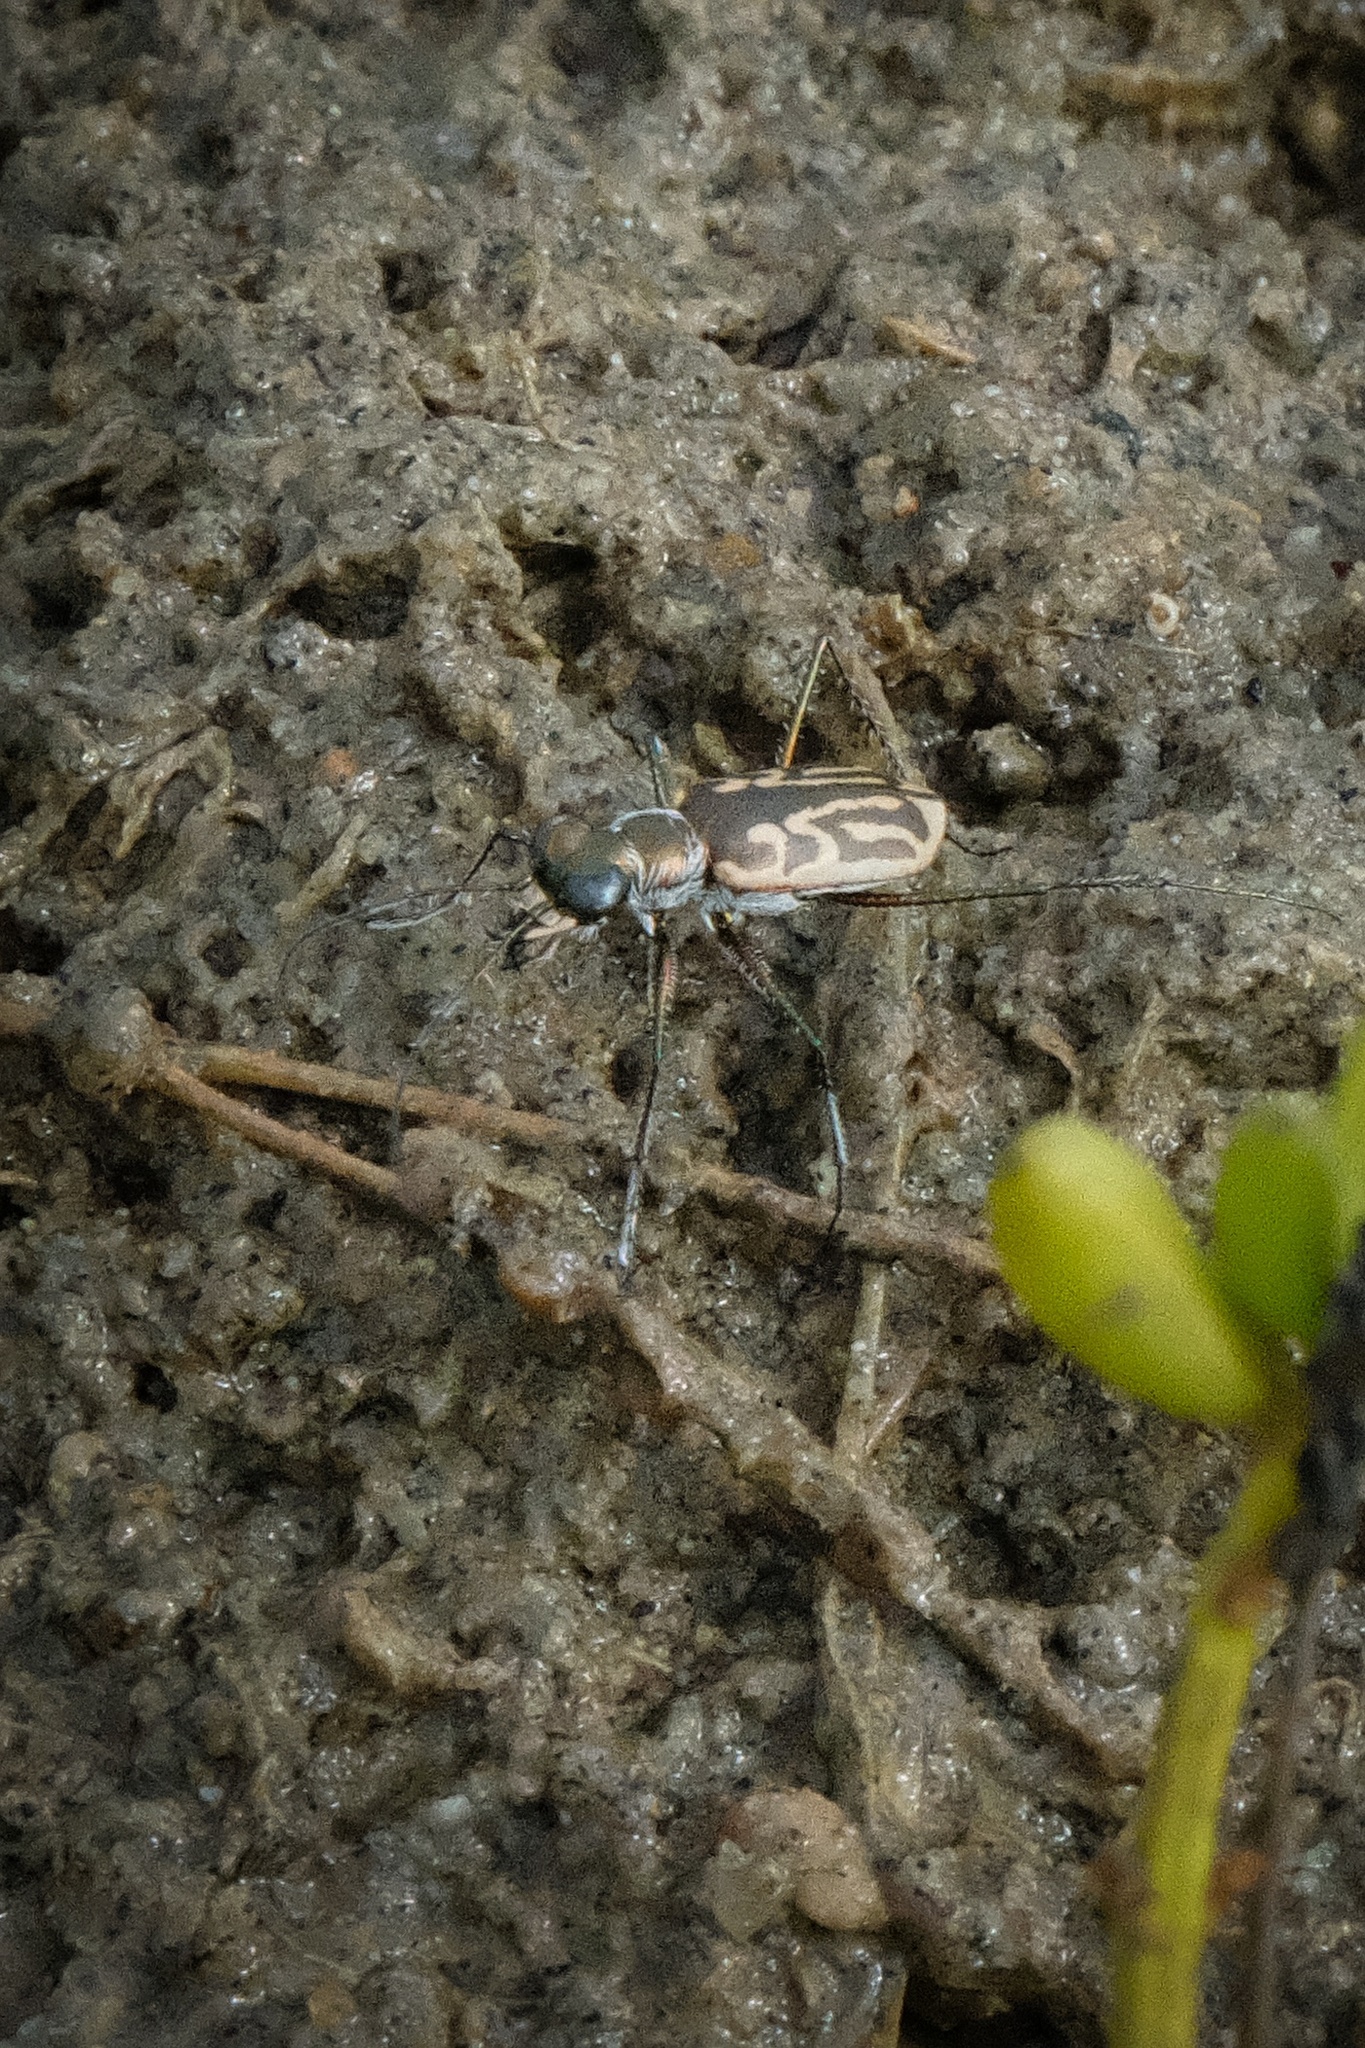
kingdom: Animalia
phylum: Arthropoda
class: Insecta
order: Coleoptera
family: Carabidae
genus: Eunota
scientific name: Eunota gabbii
